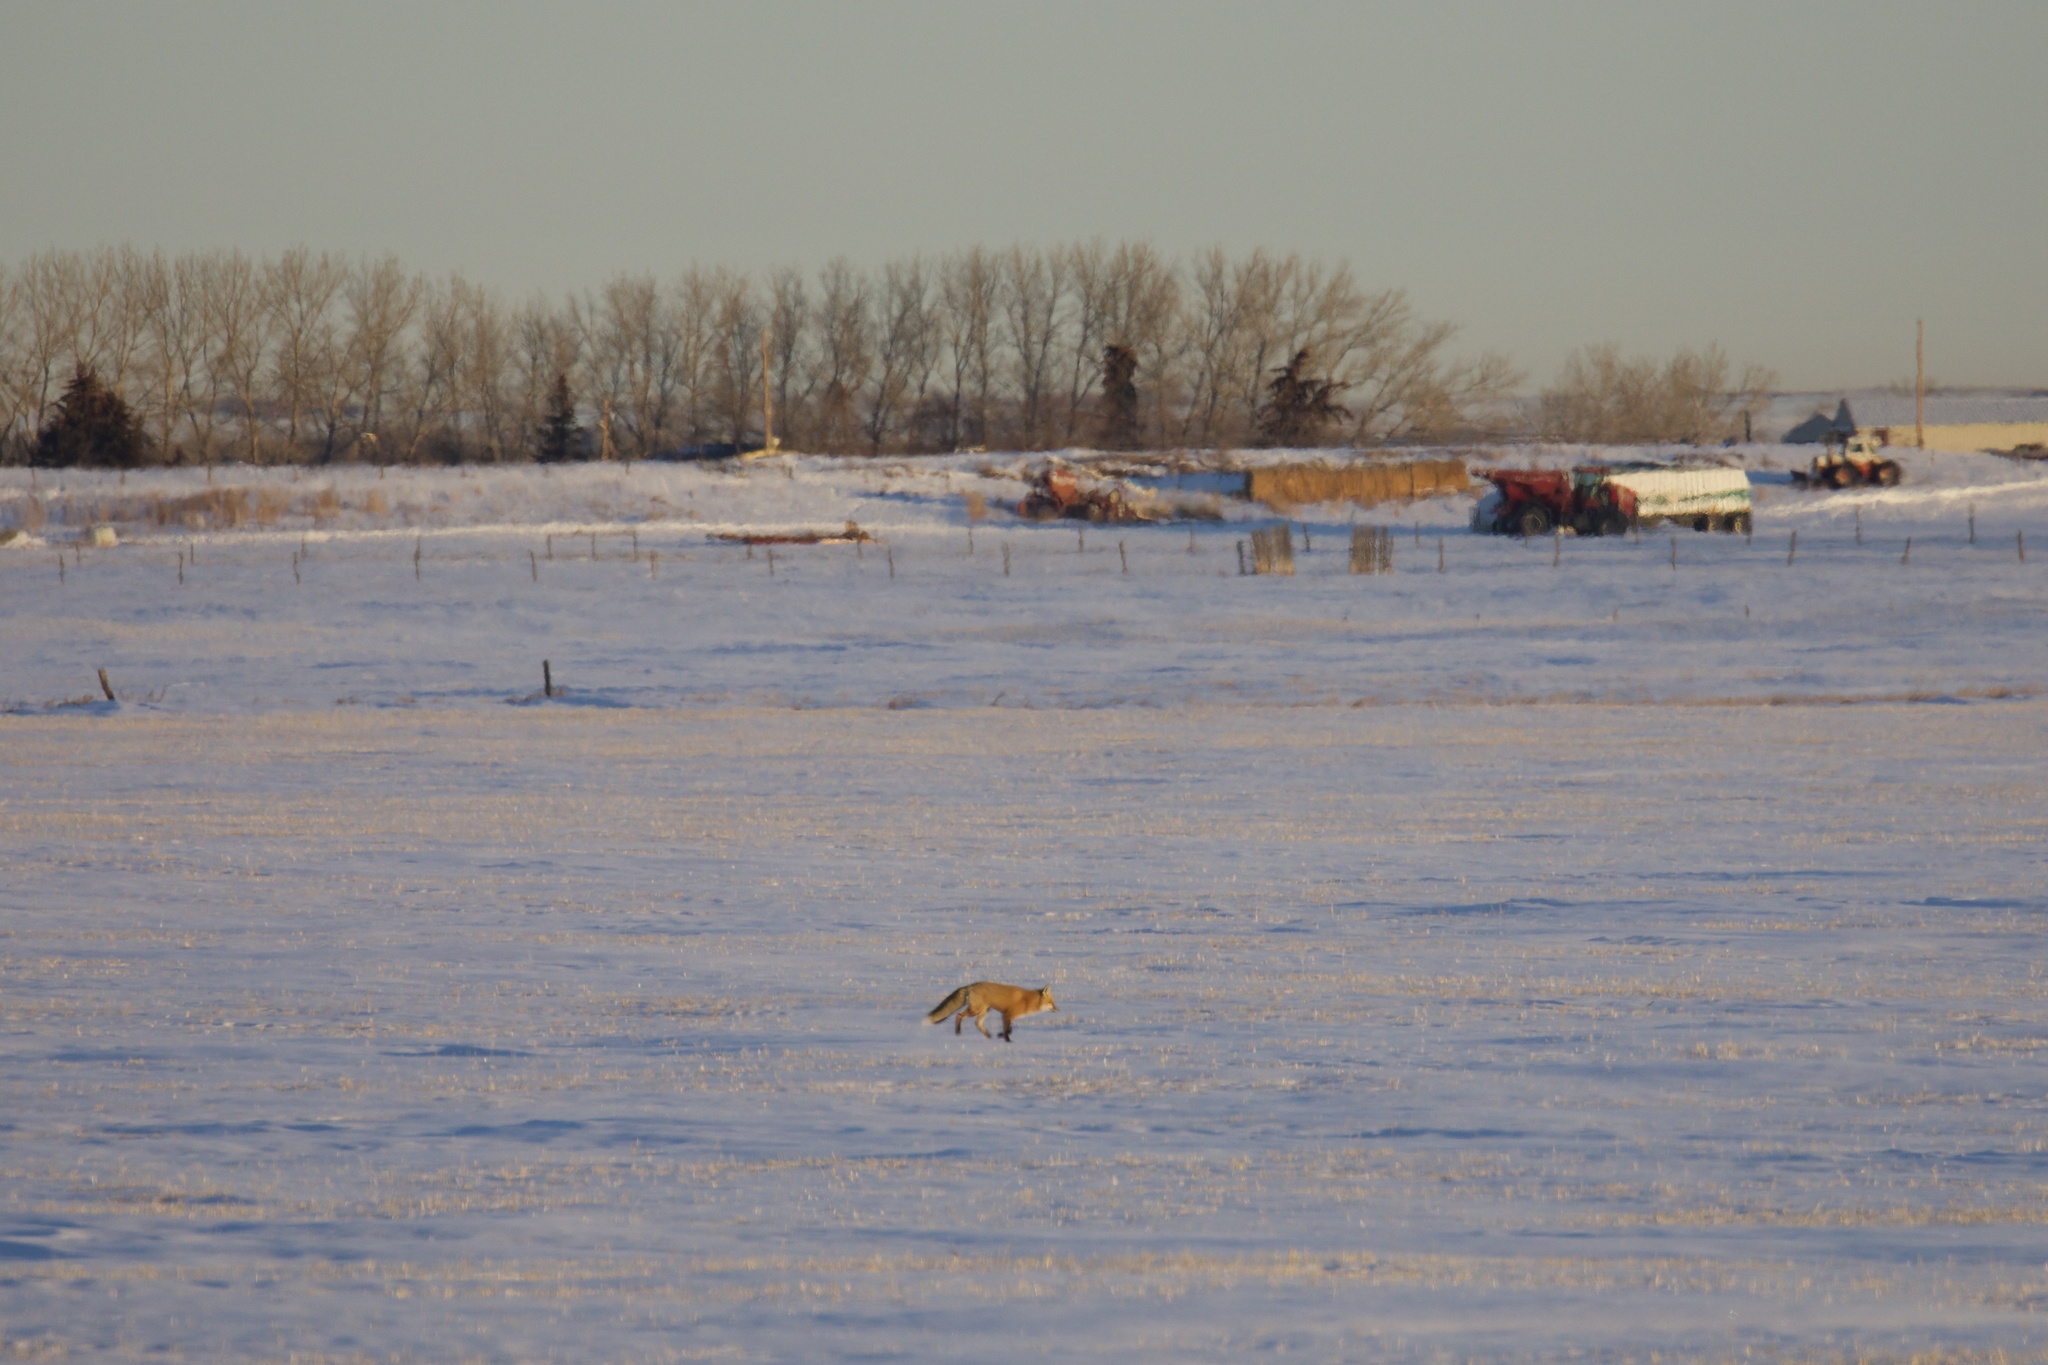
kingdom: Animalia
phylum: Chordata
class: Mammalia
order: Carnivora
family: Canidae
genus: Vulpes
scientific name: Vulpes vulpes
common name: Red fox
